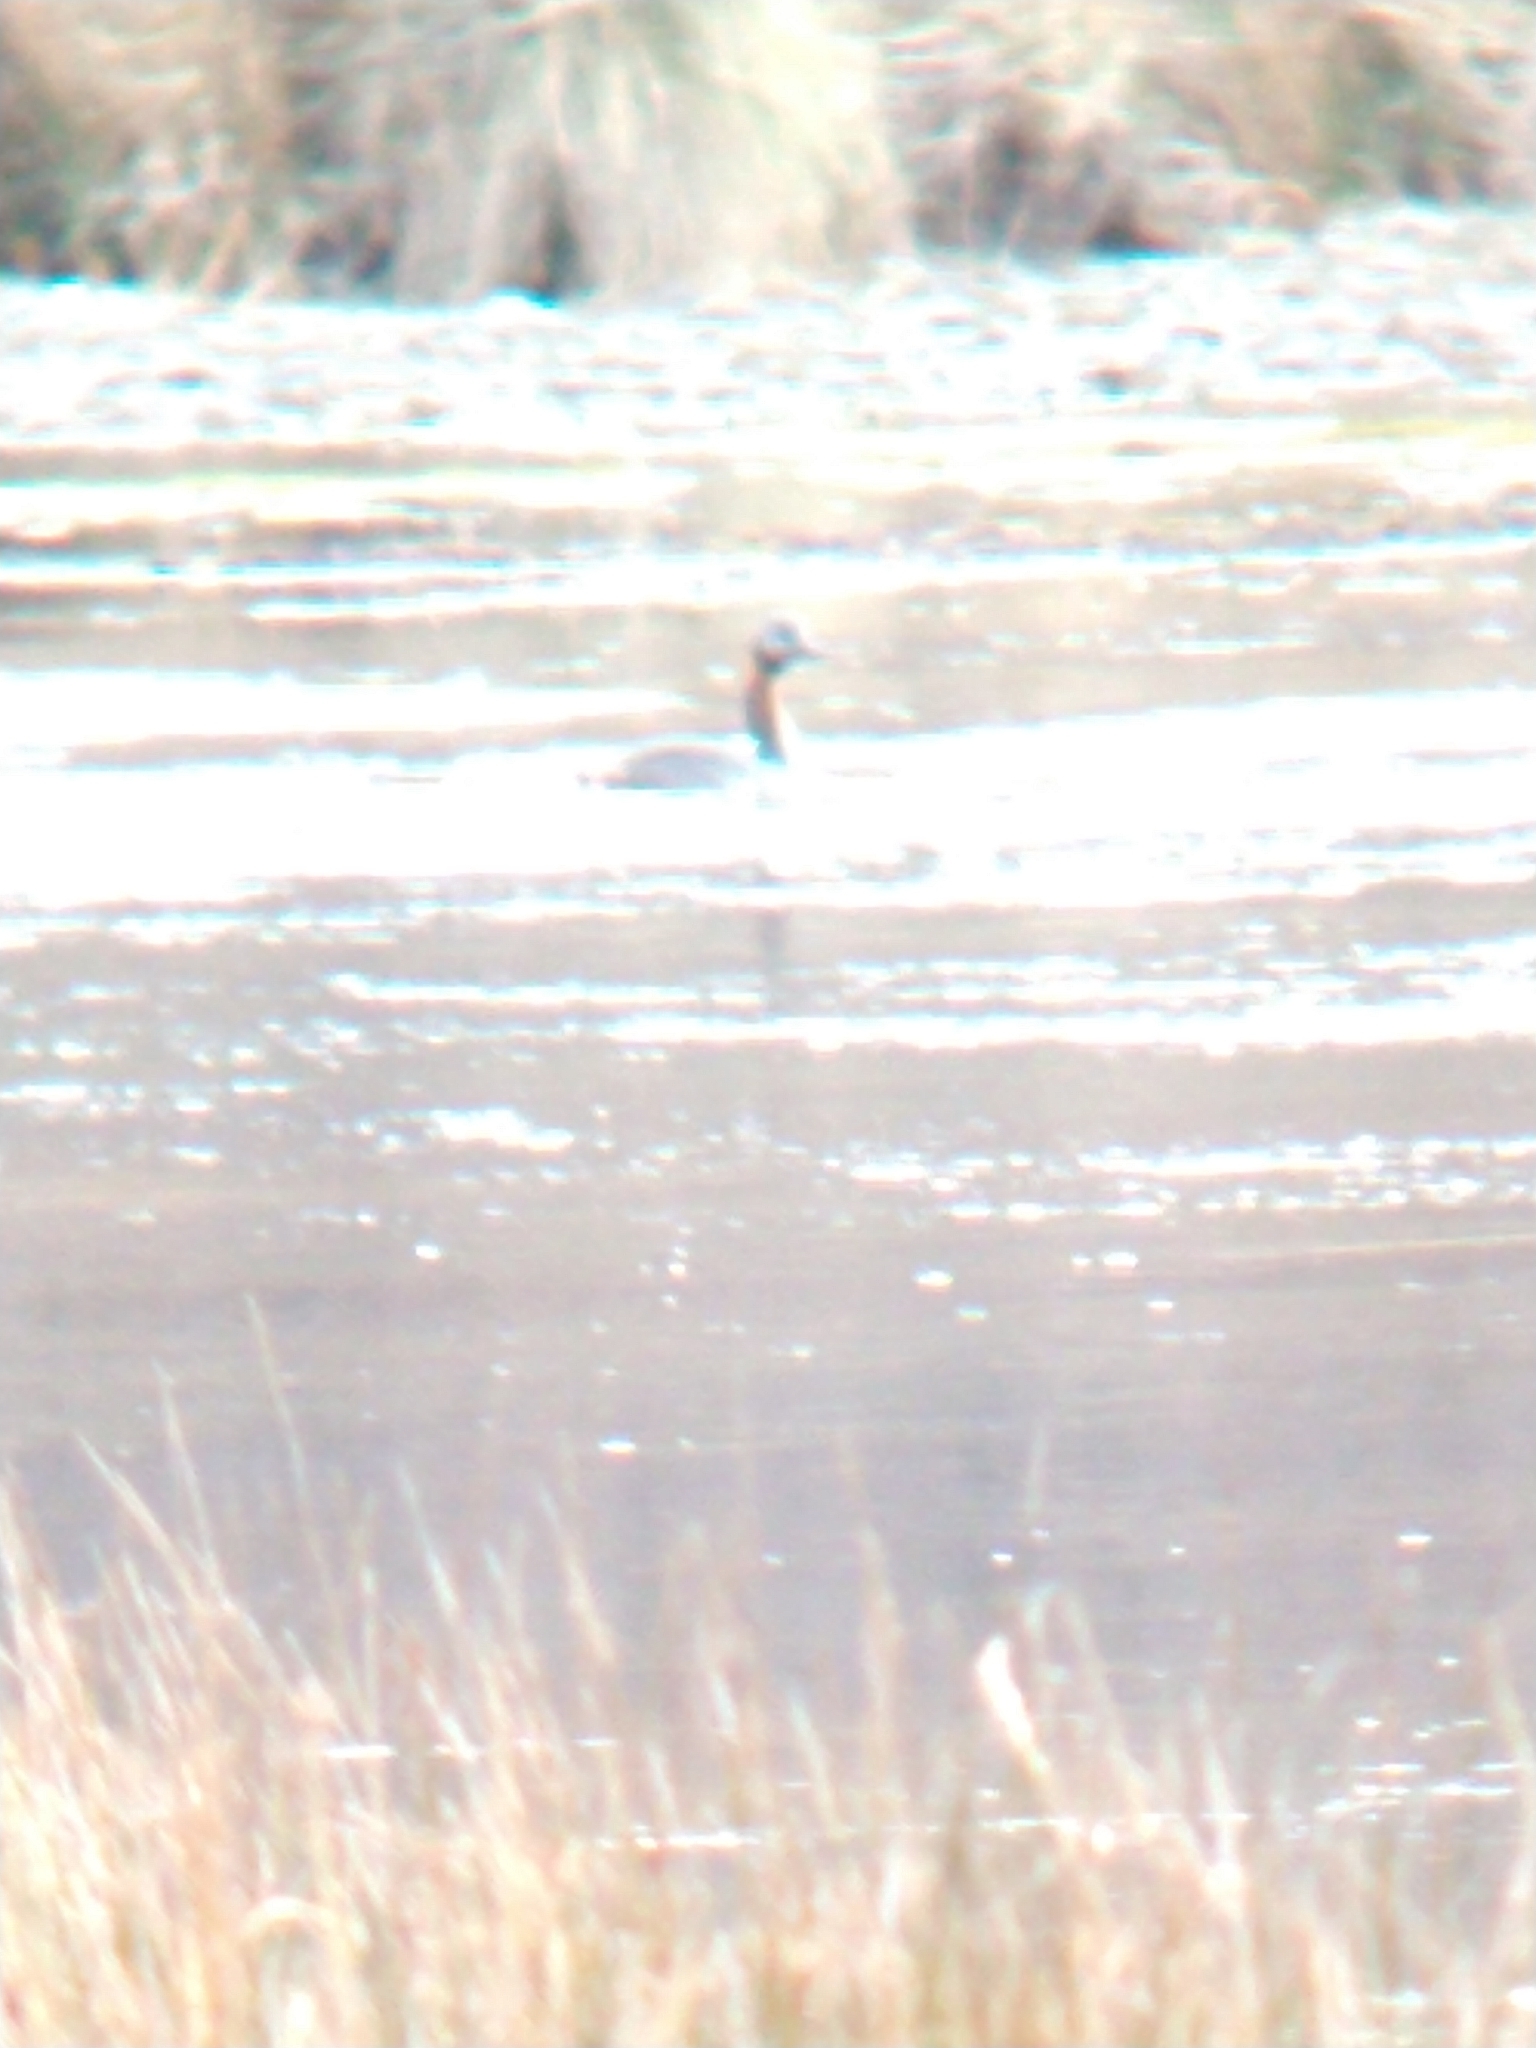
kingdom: Animalia
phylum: Chordata
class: Aves
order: Podicipediformes
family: Podicipedidae
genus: Podiceps
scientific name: Podiceps major
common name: Great grebe
